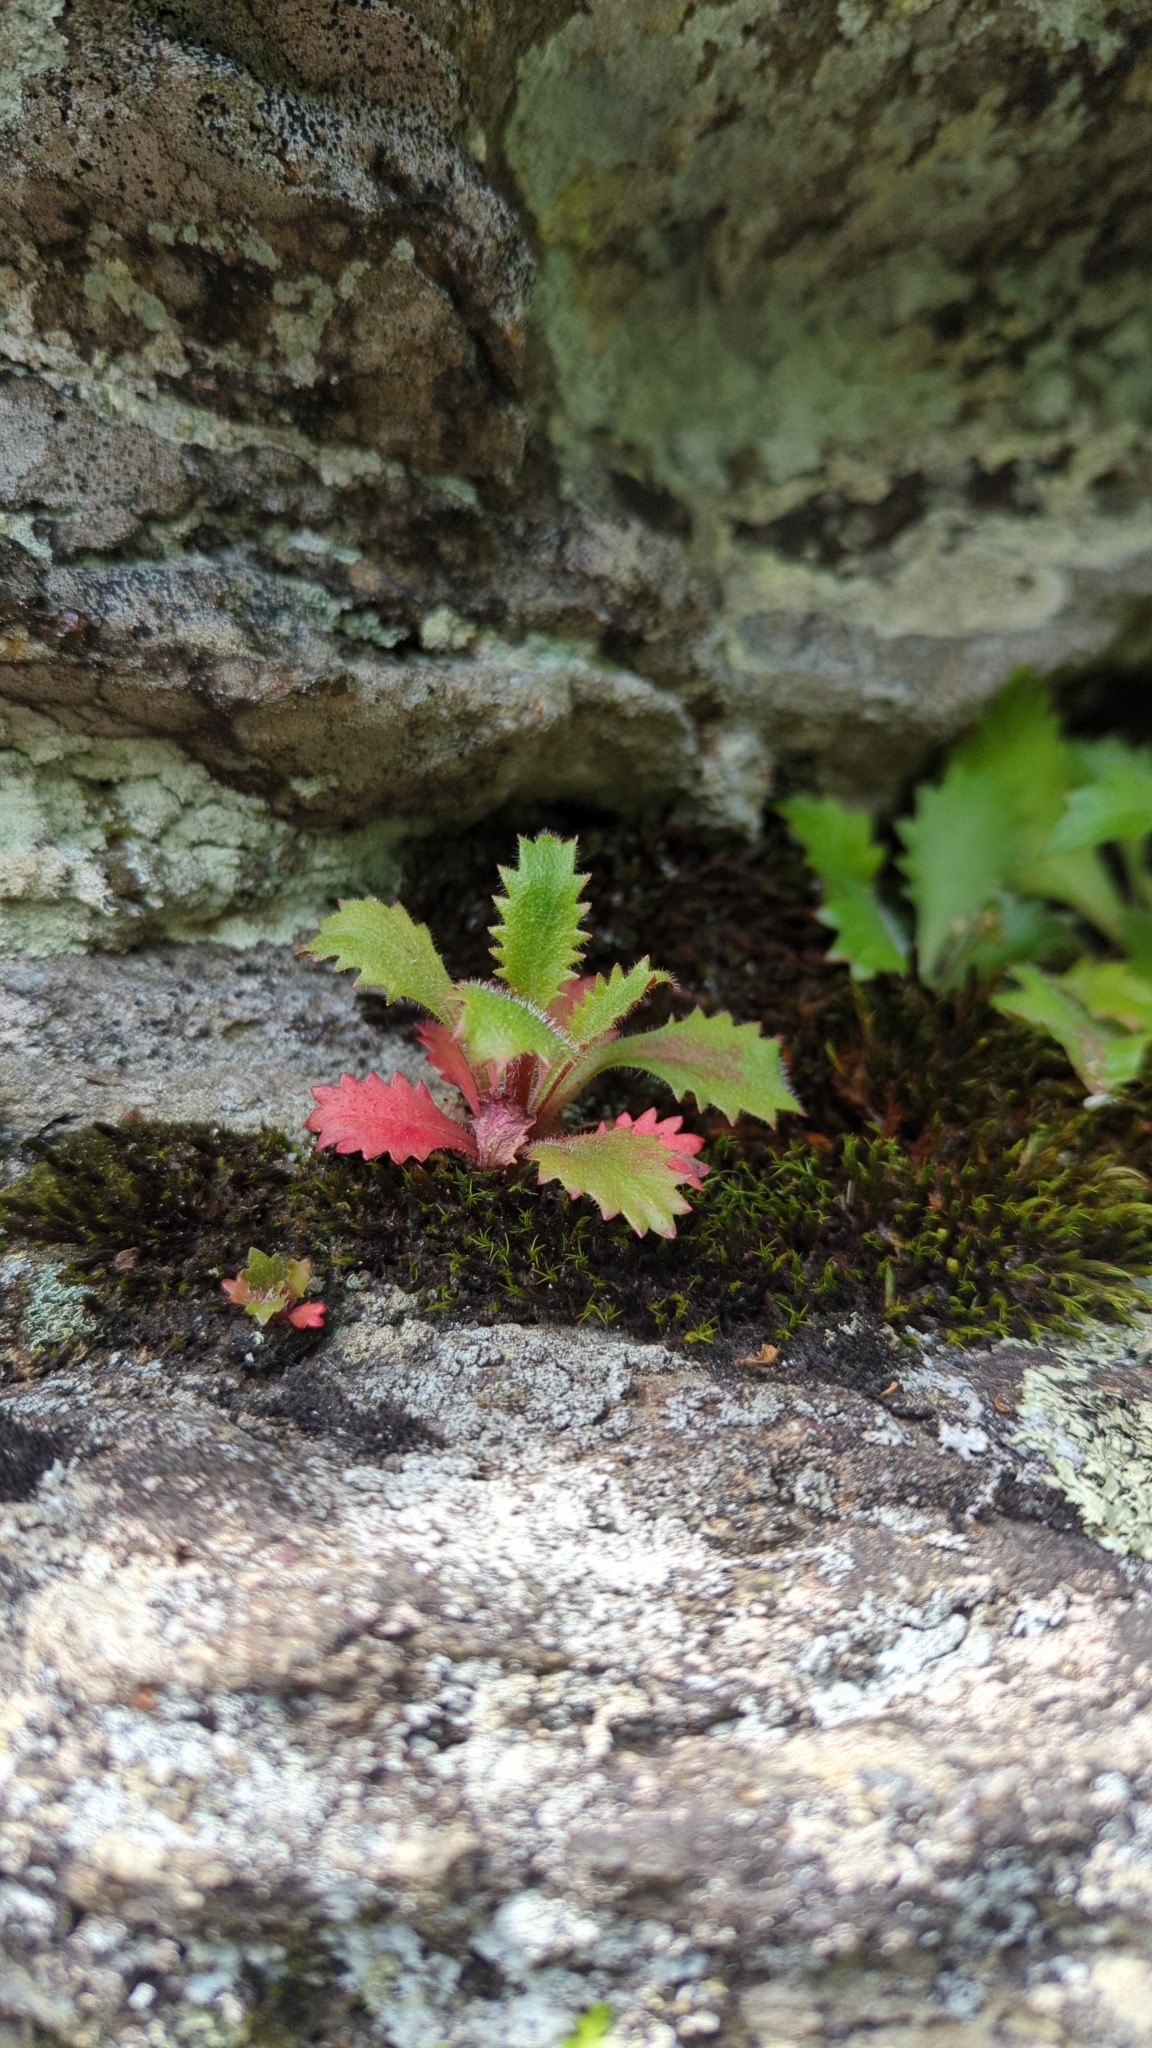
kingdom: Plantae
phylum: Tracheophyta
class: Magnoliopsida
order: Saxifragales
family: Saxifragaceae
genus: Micranthes
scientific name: Micranthes petiolaris
